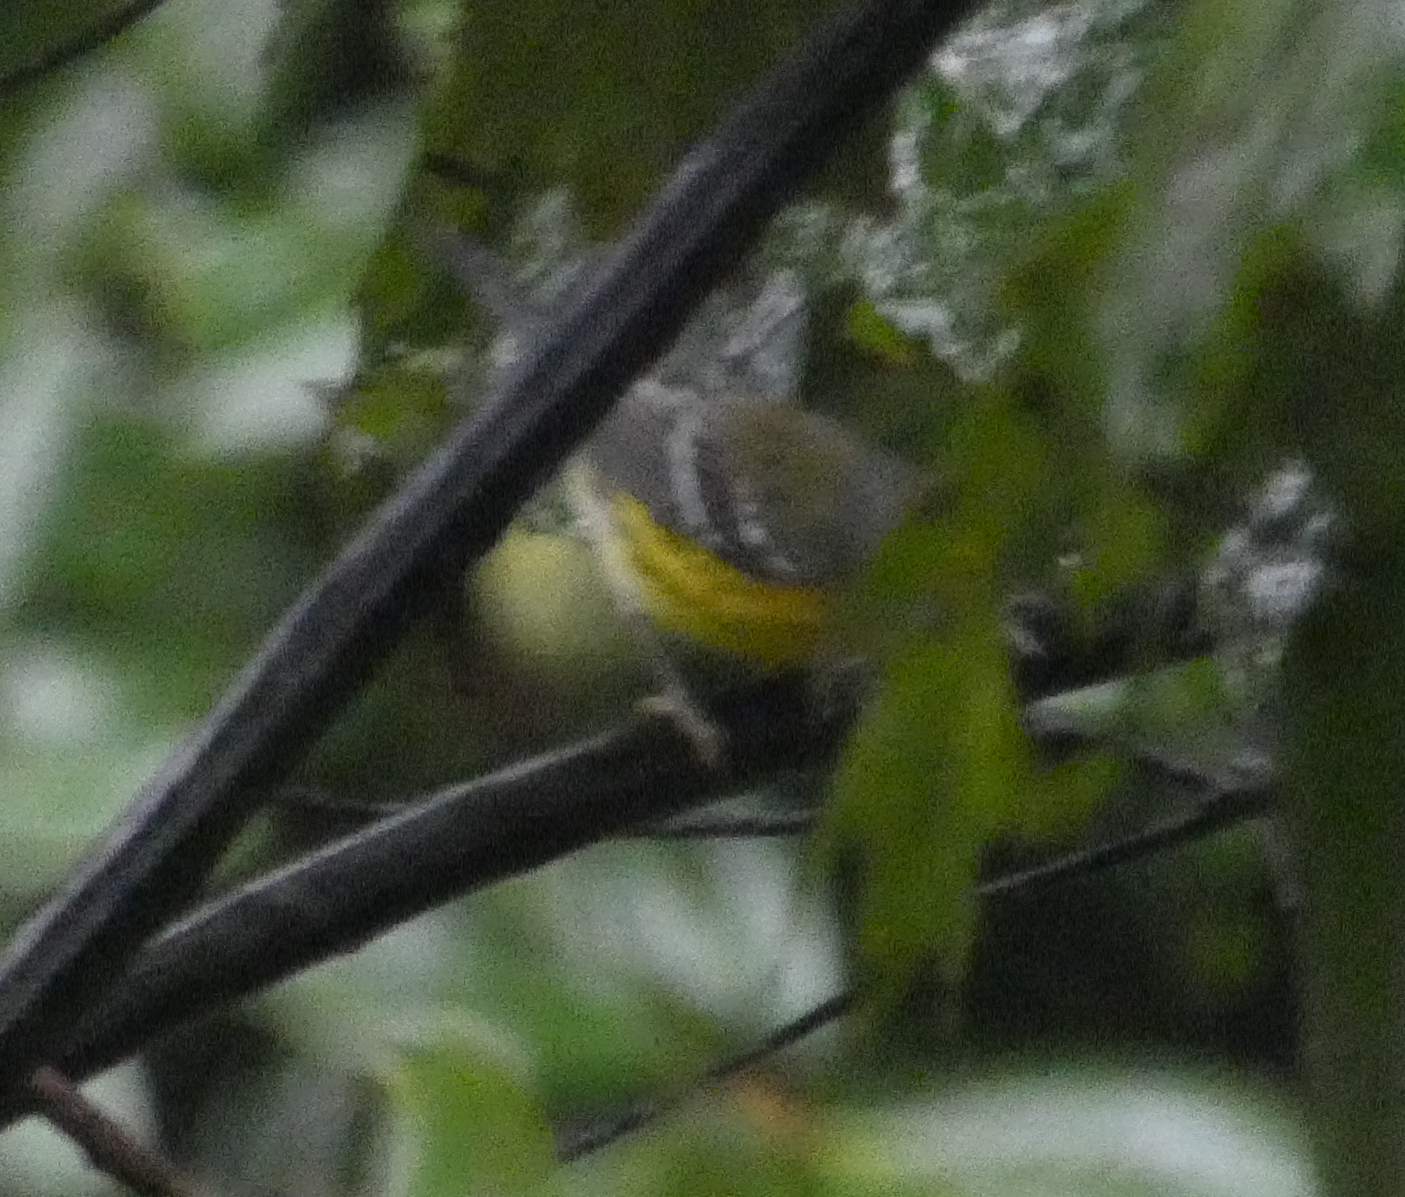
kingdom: Animalia
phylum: Chordata
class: Aves
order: Passeriformes
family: Parulidae
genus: Setophaga
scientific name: Setophaga magnolia
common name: Magnolia warbler
